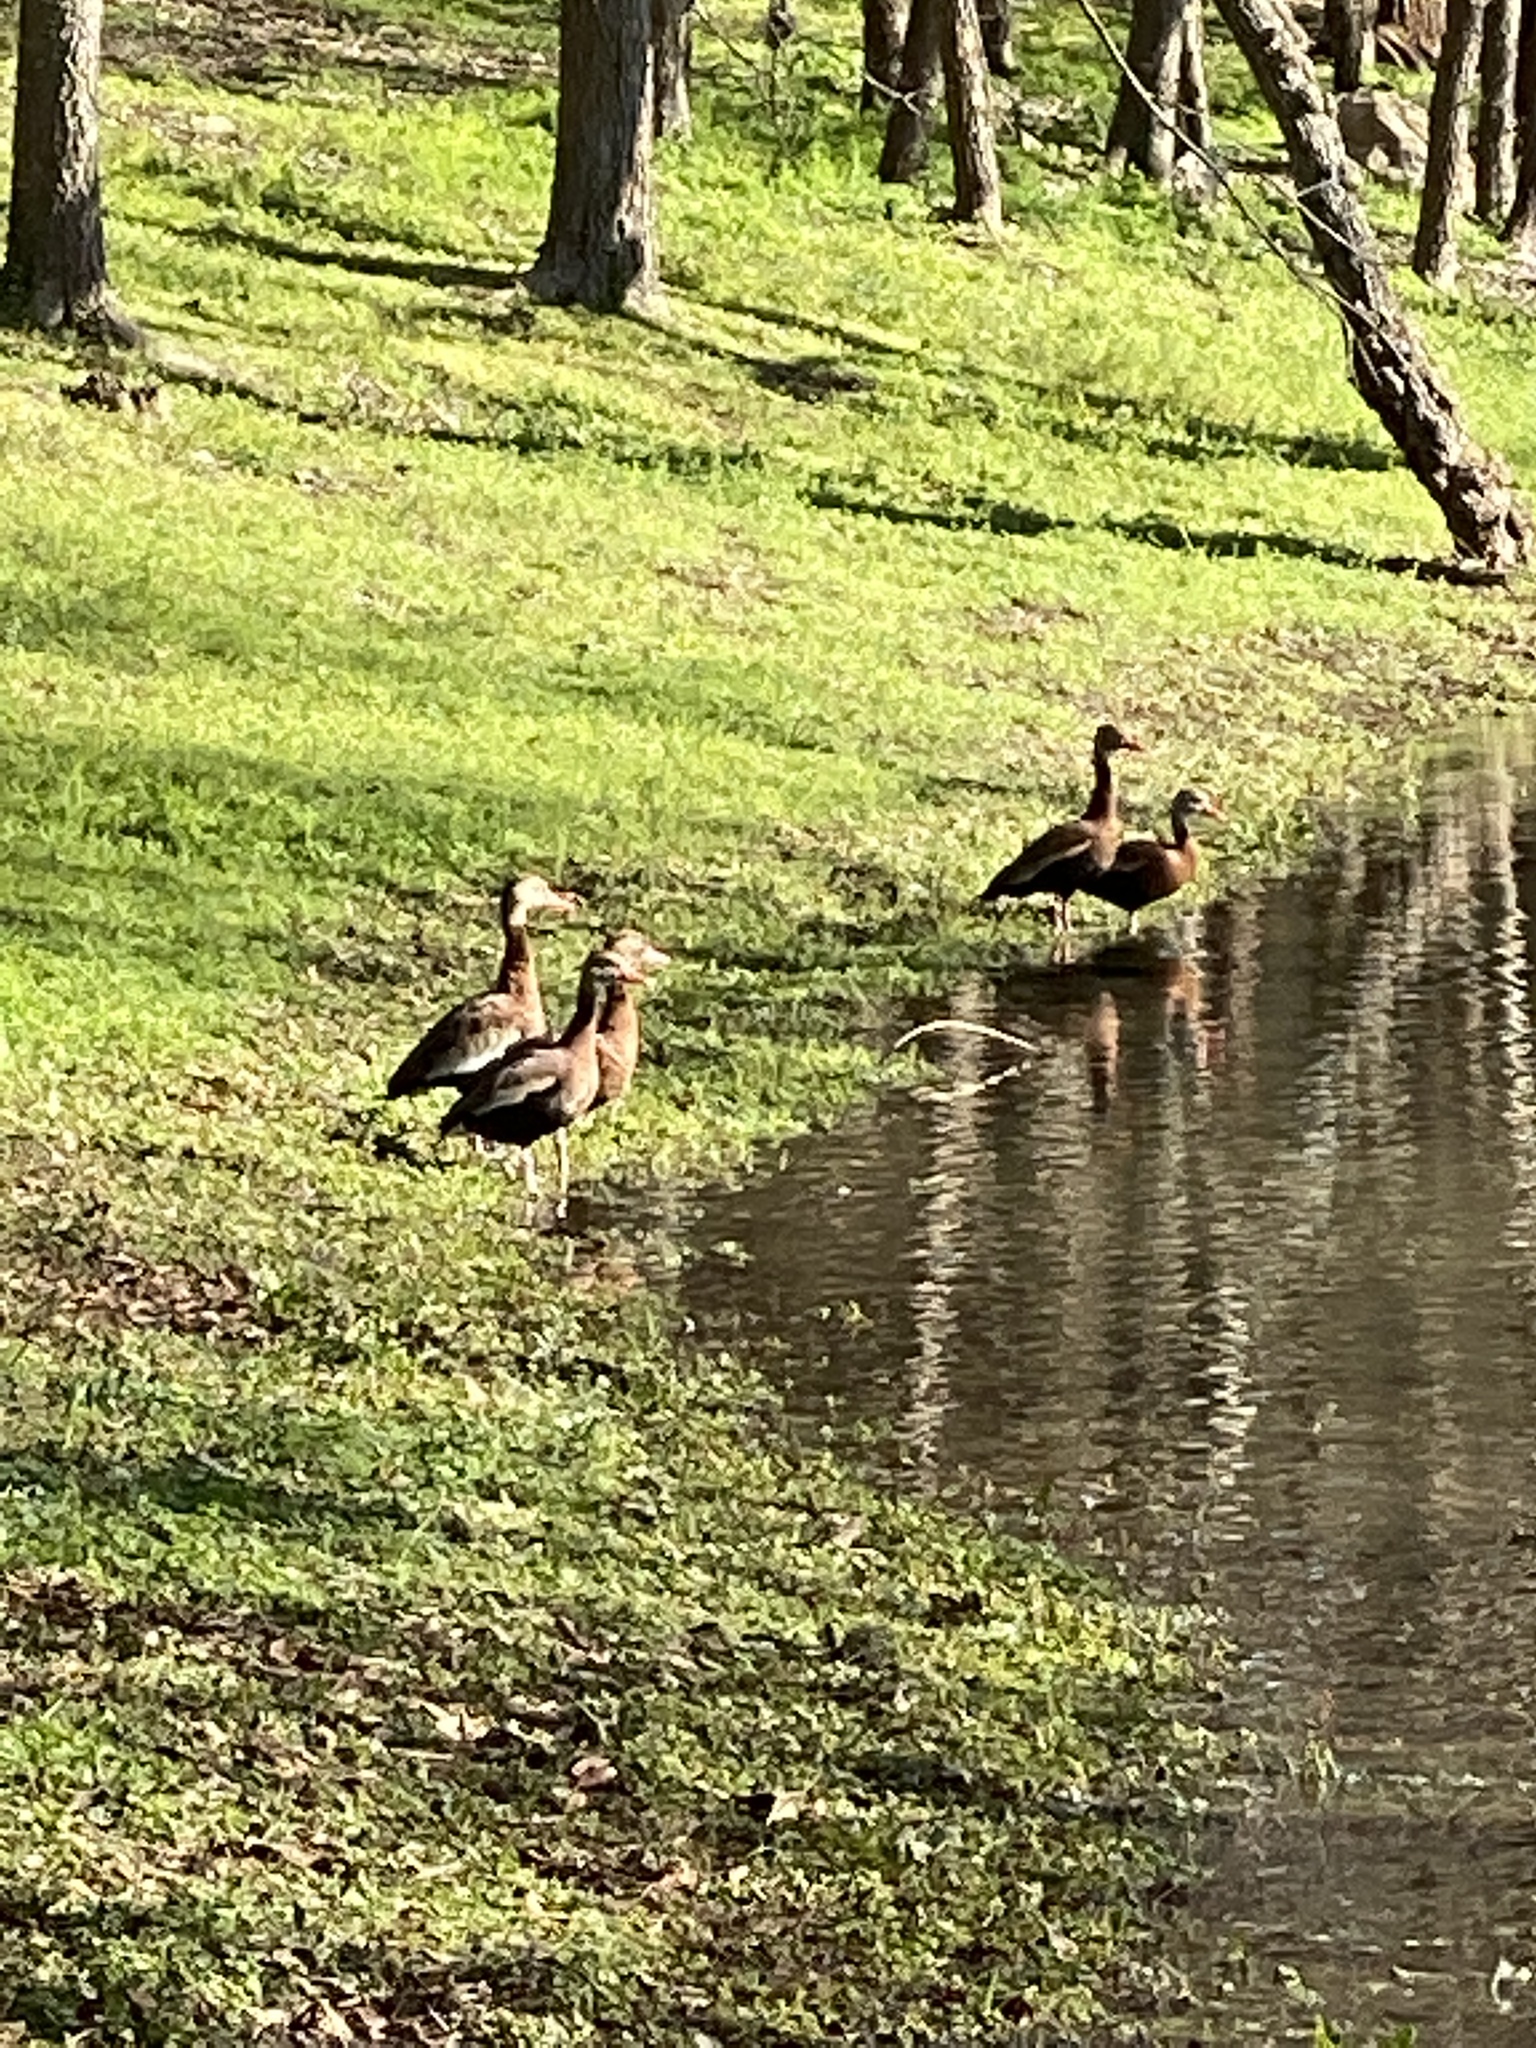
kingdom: Animalia
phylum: Chordata
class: Aves
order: Anseriformes
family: Anatidae
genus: Dendrocygna
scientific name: Dendrocygna autumnalis
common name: Black-bellied whistling duck
